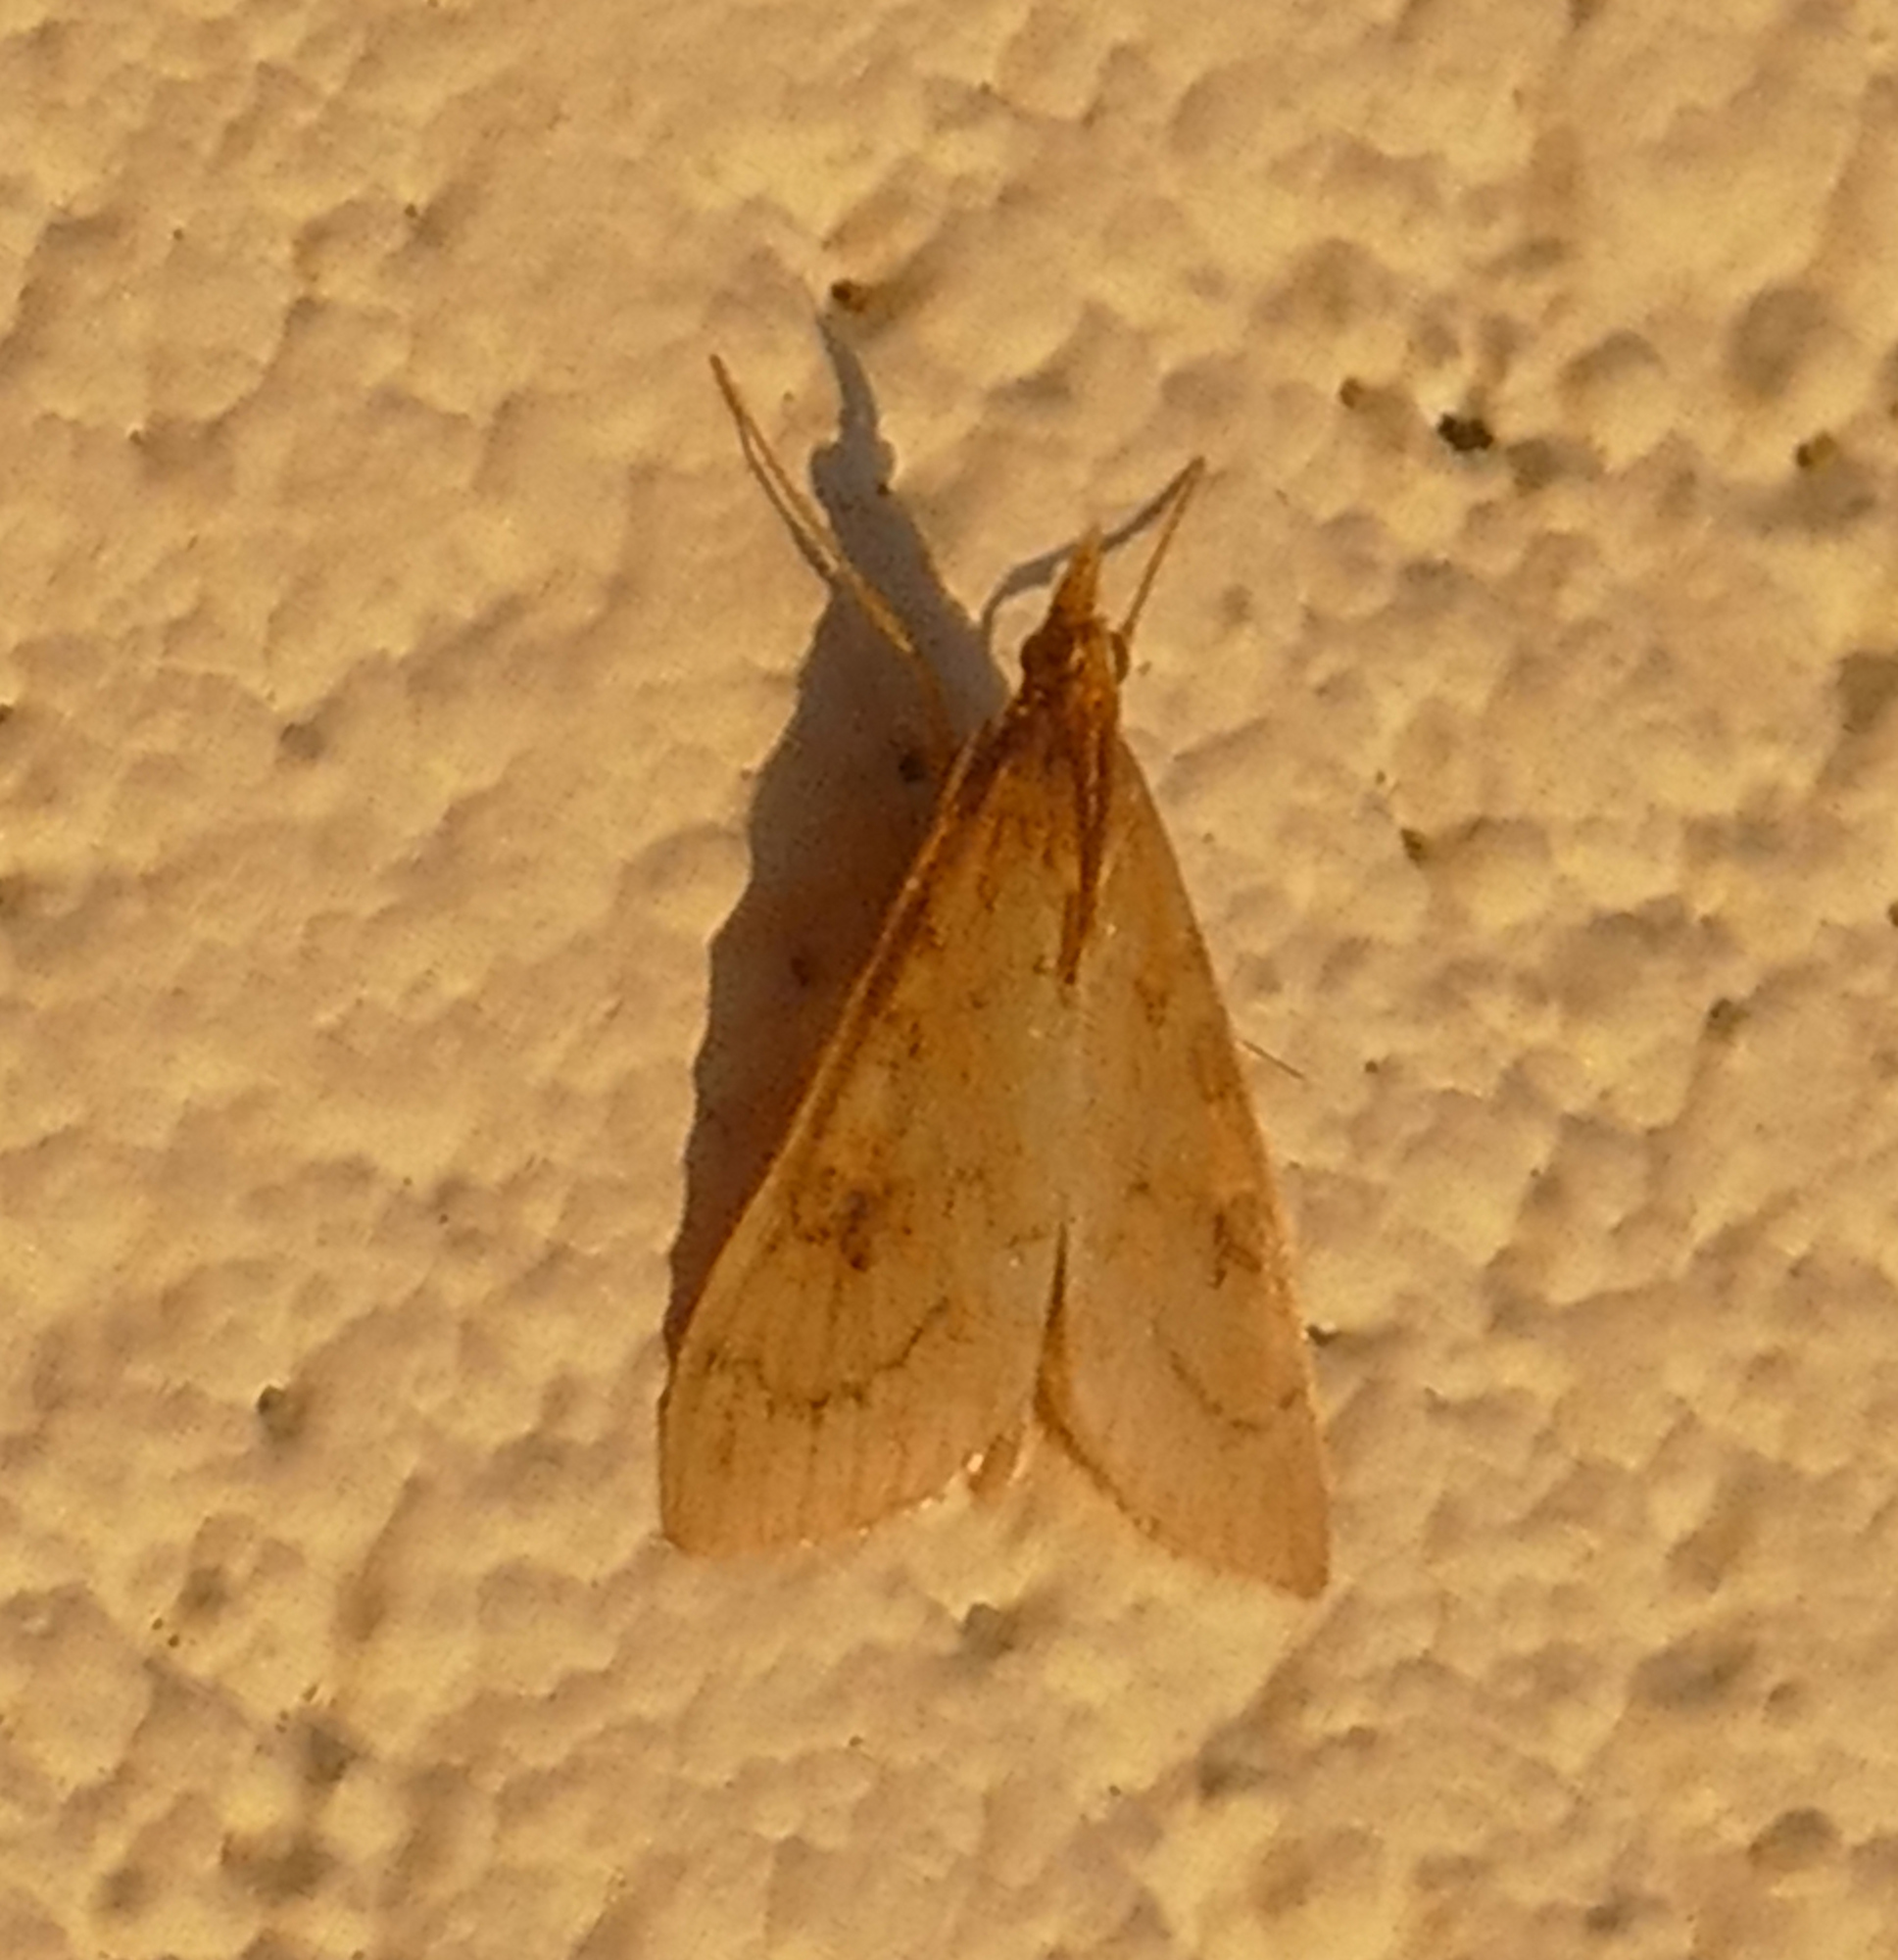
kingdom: Animalia
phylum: Arthropoda
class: Insecta
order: Lepidoptera
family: Crambidae
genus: Udea
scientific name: Udea rubigalis
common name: Celery leaftier moth
